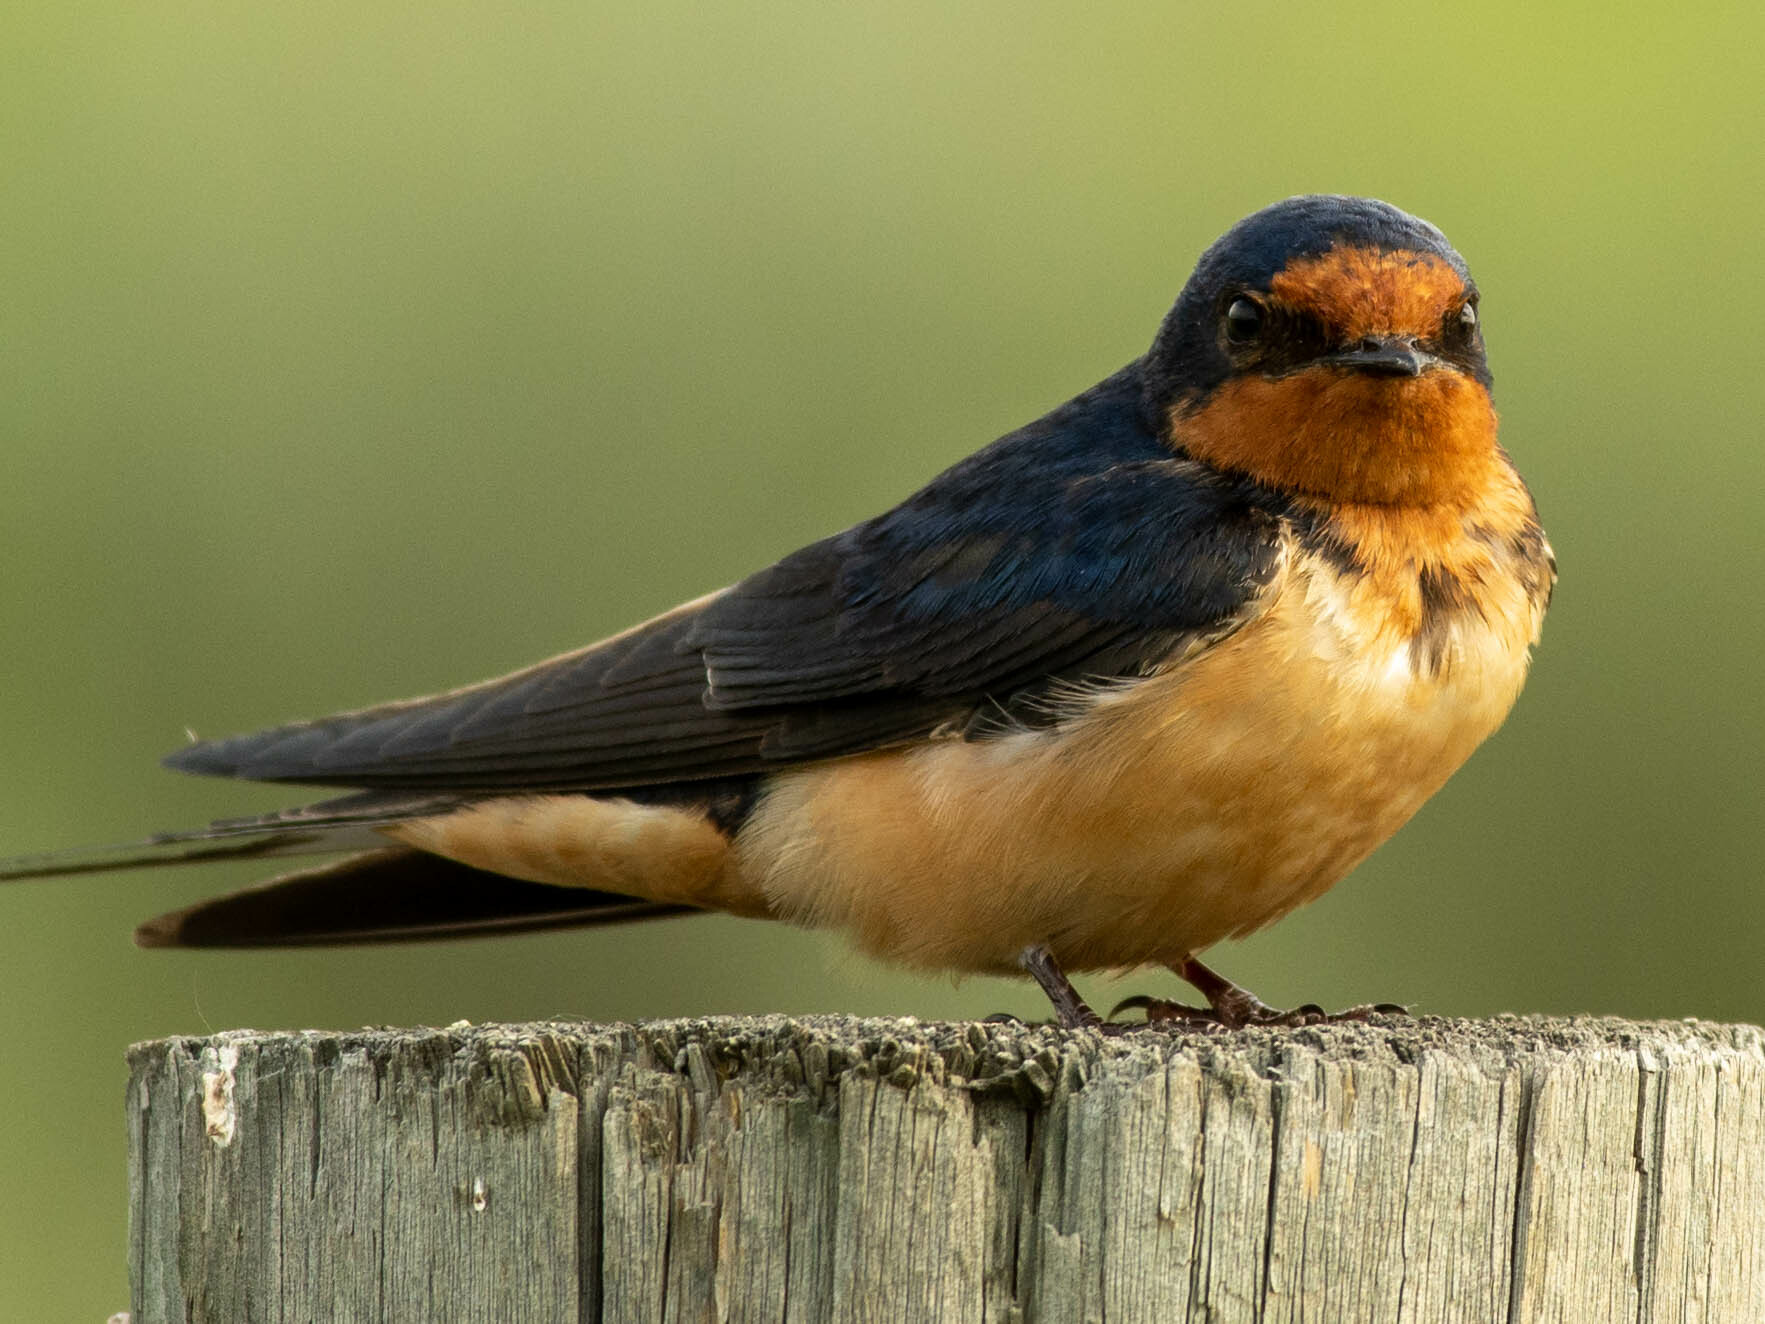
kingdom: Animalia
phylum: Chordata
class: Aves
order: Passeriformes
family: Hirundinidae
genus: Hirundo
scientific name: Hirundo rustica
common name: Barn swallow
